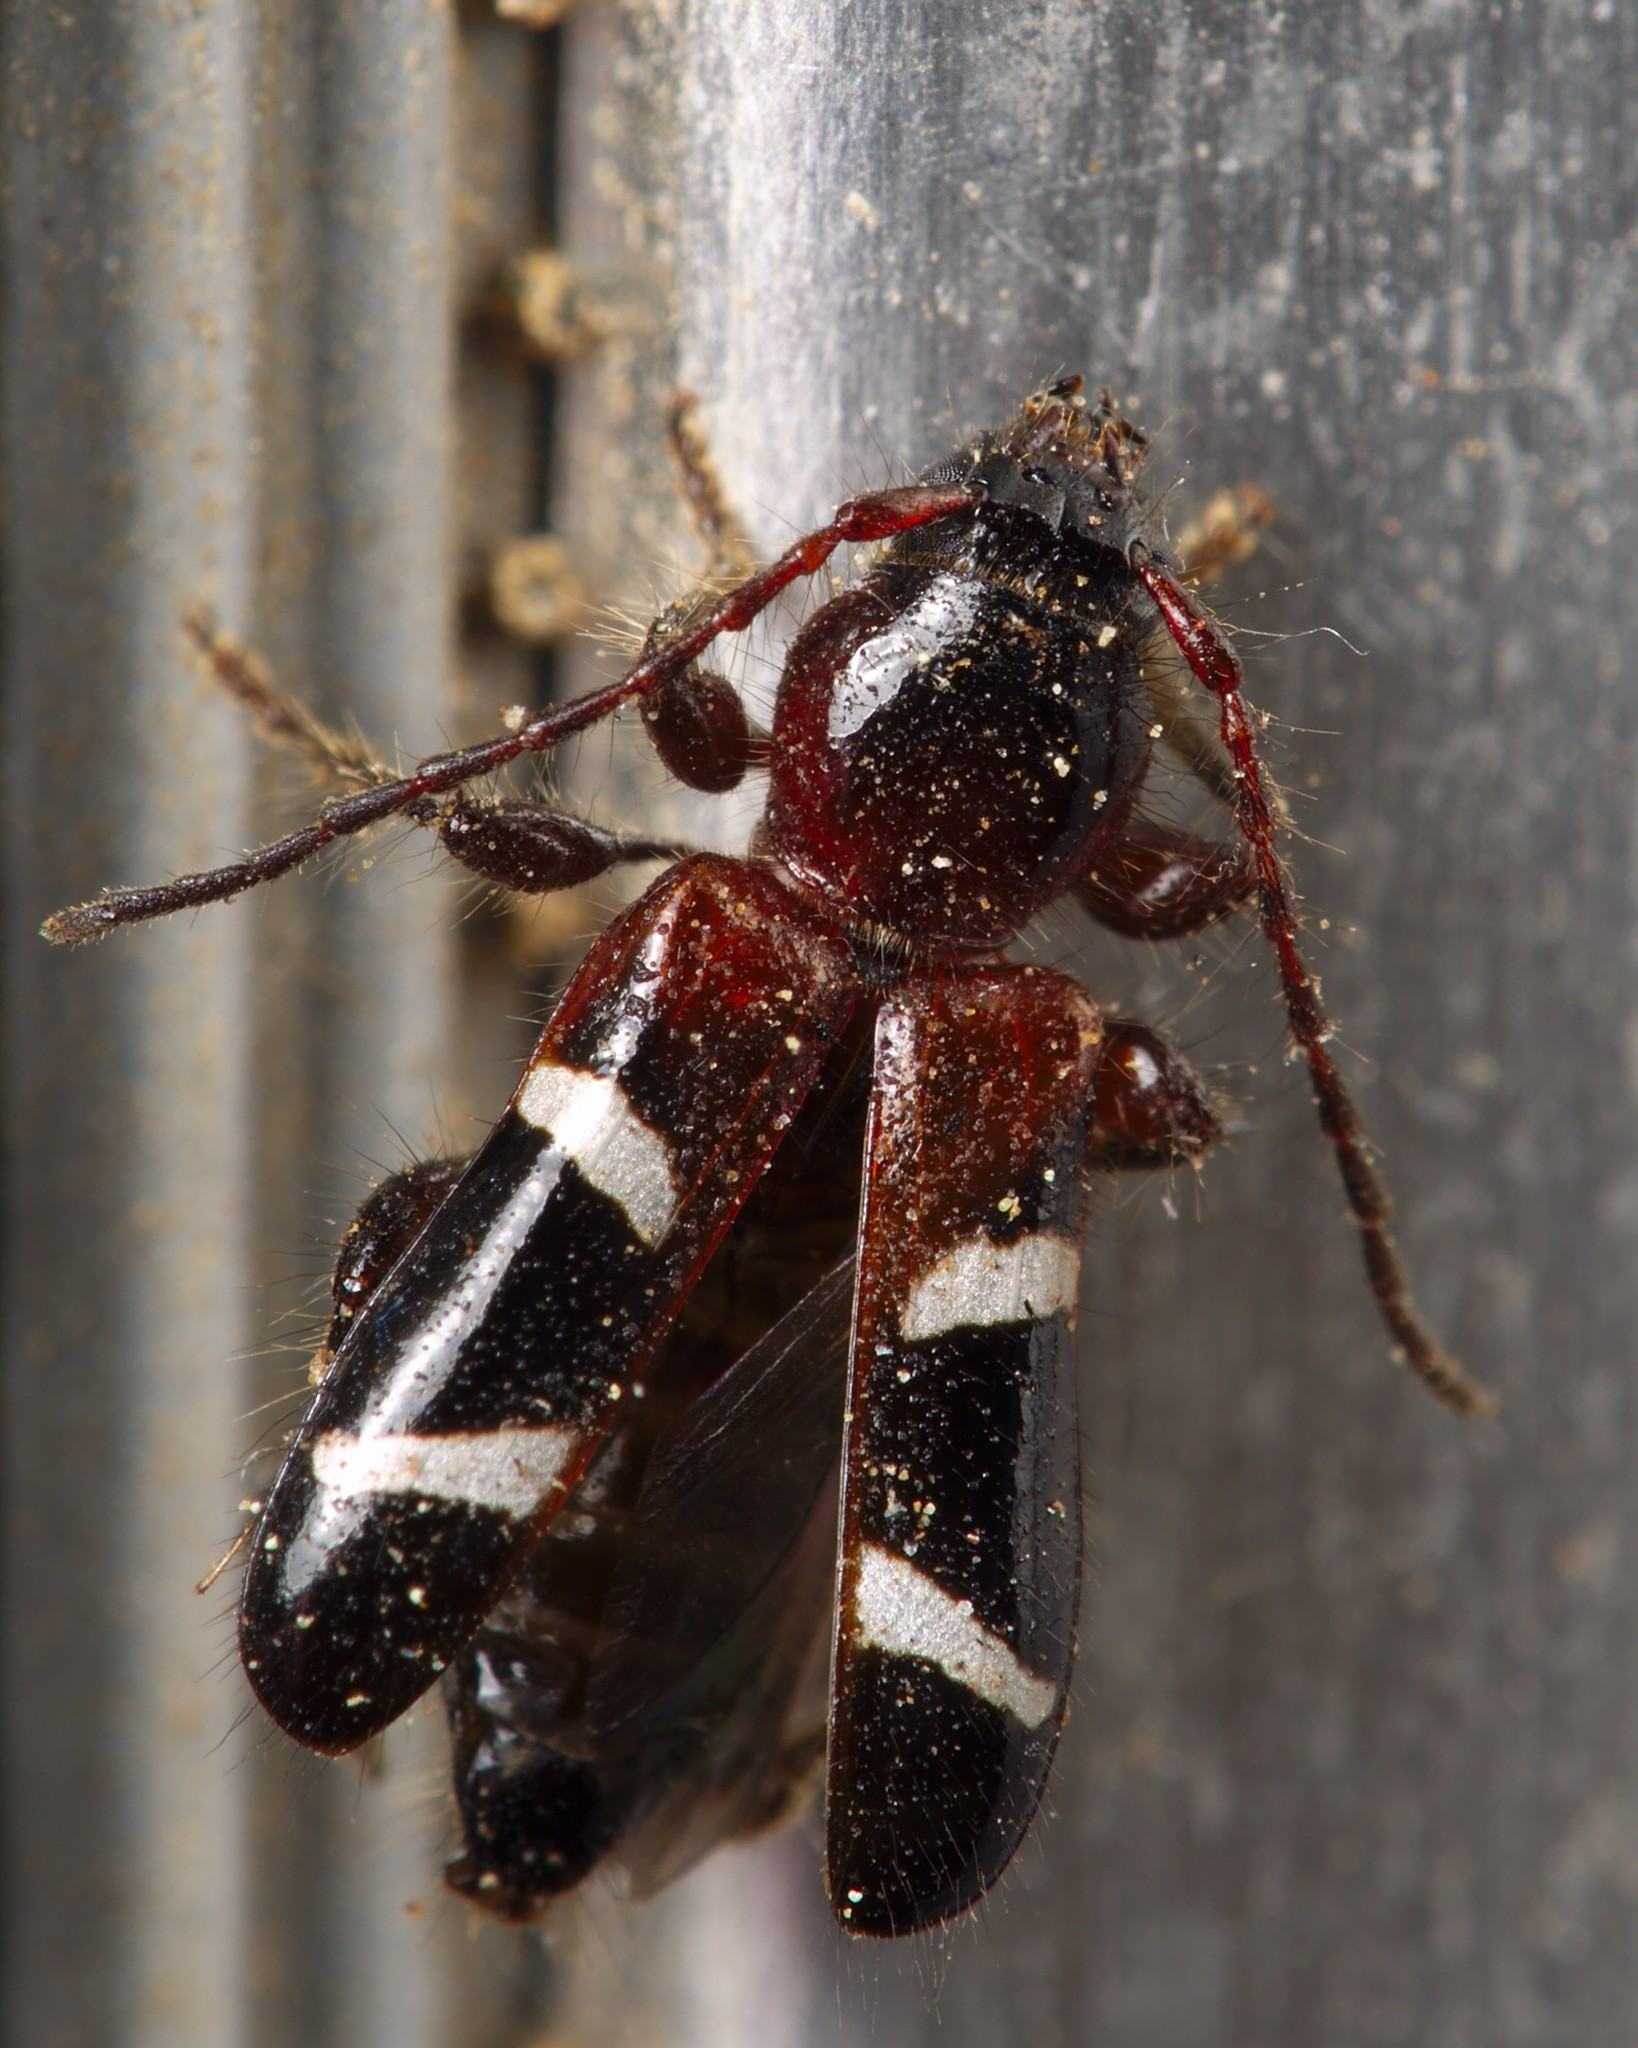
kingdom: Animalia
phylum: Arthropoda
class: Insecta
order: Coleoptera
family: Cerambycidae
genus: Phymatodes
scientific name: Phymatodes nitidus
